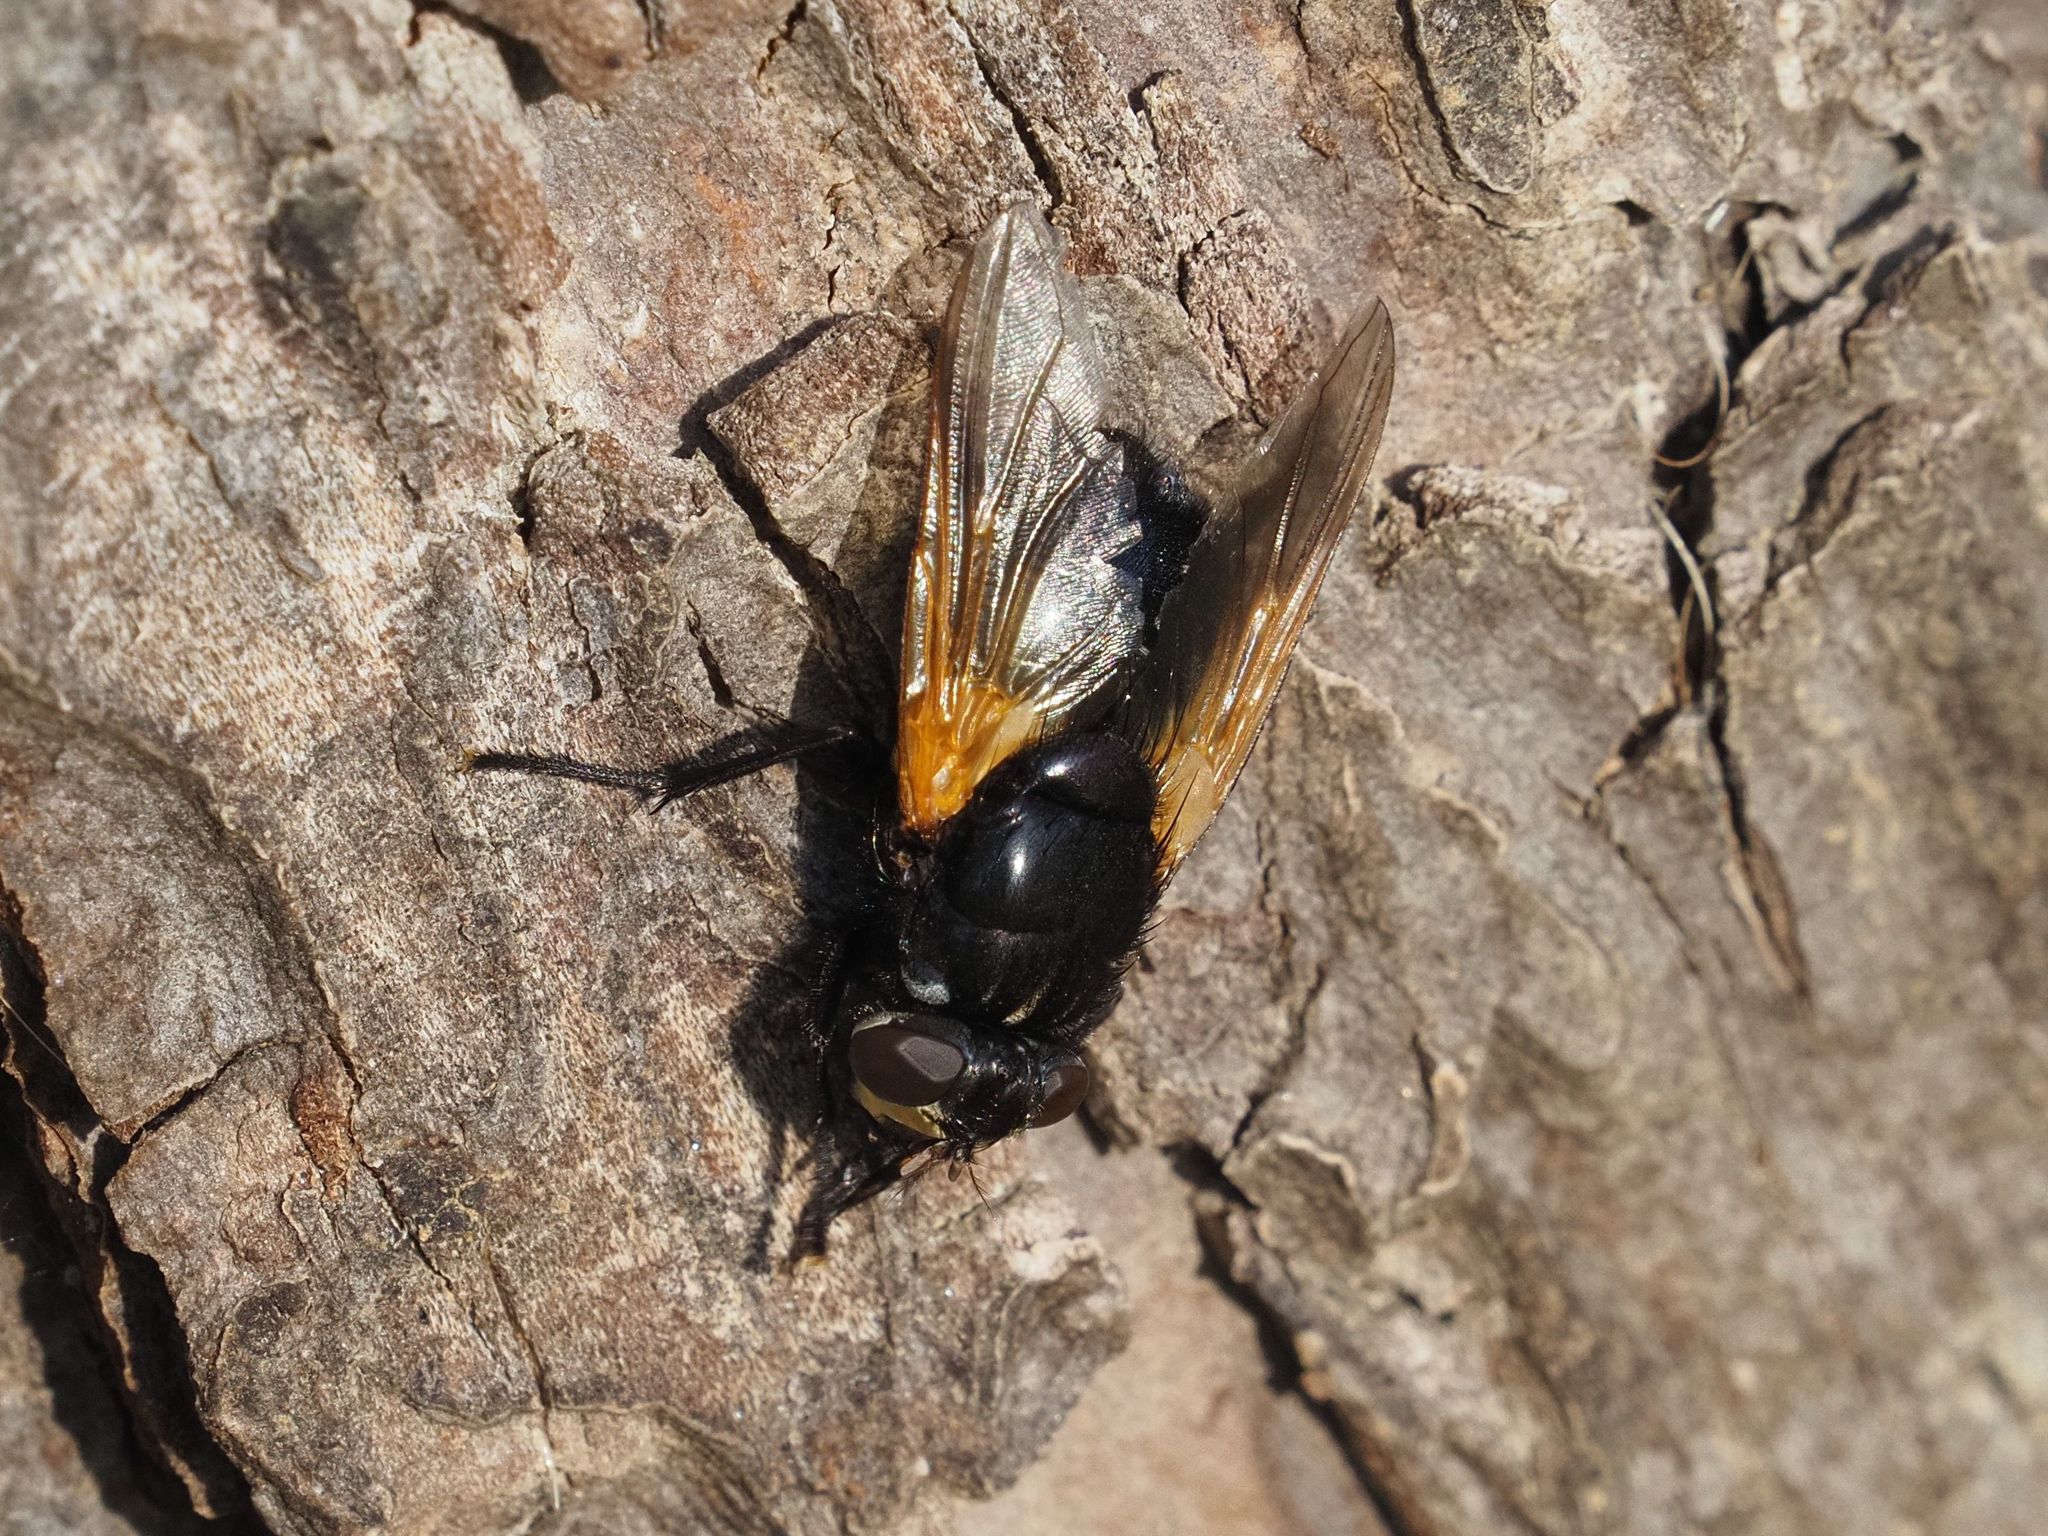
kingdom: Animalia
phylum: Arthropoda
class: Insecta
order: Diptera
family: Muscidae
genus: Mesembrina
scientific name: Mesembrina meridiana
